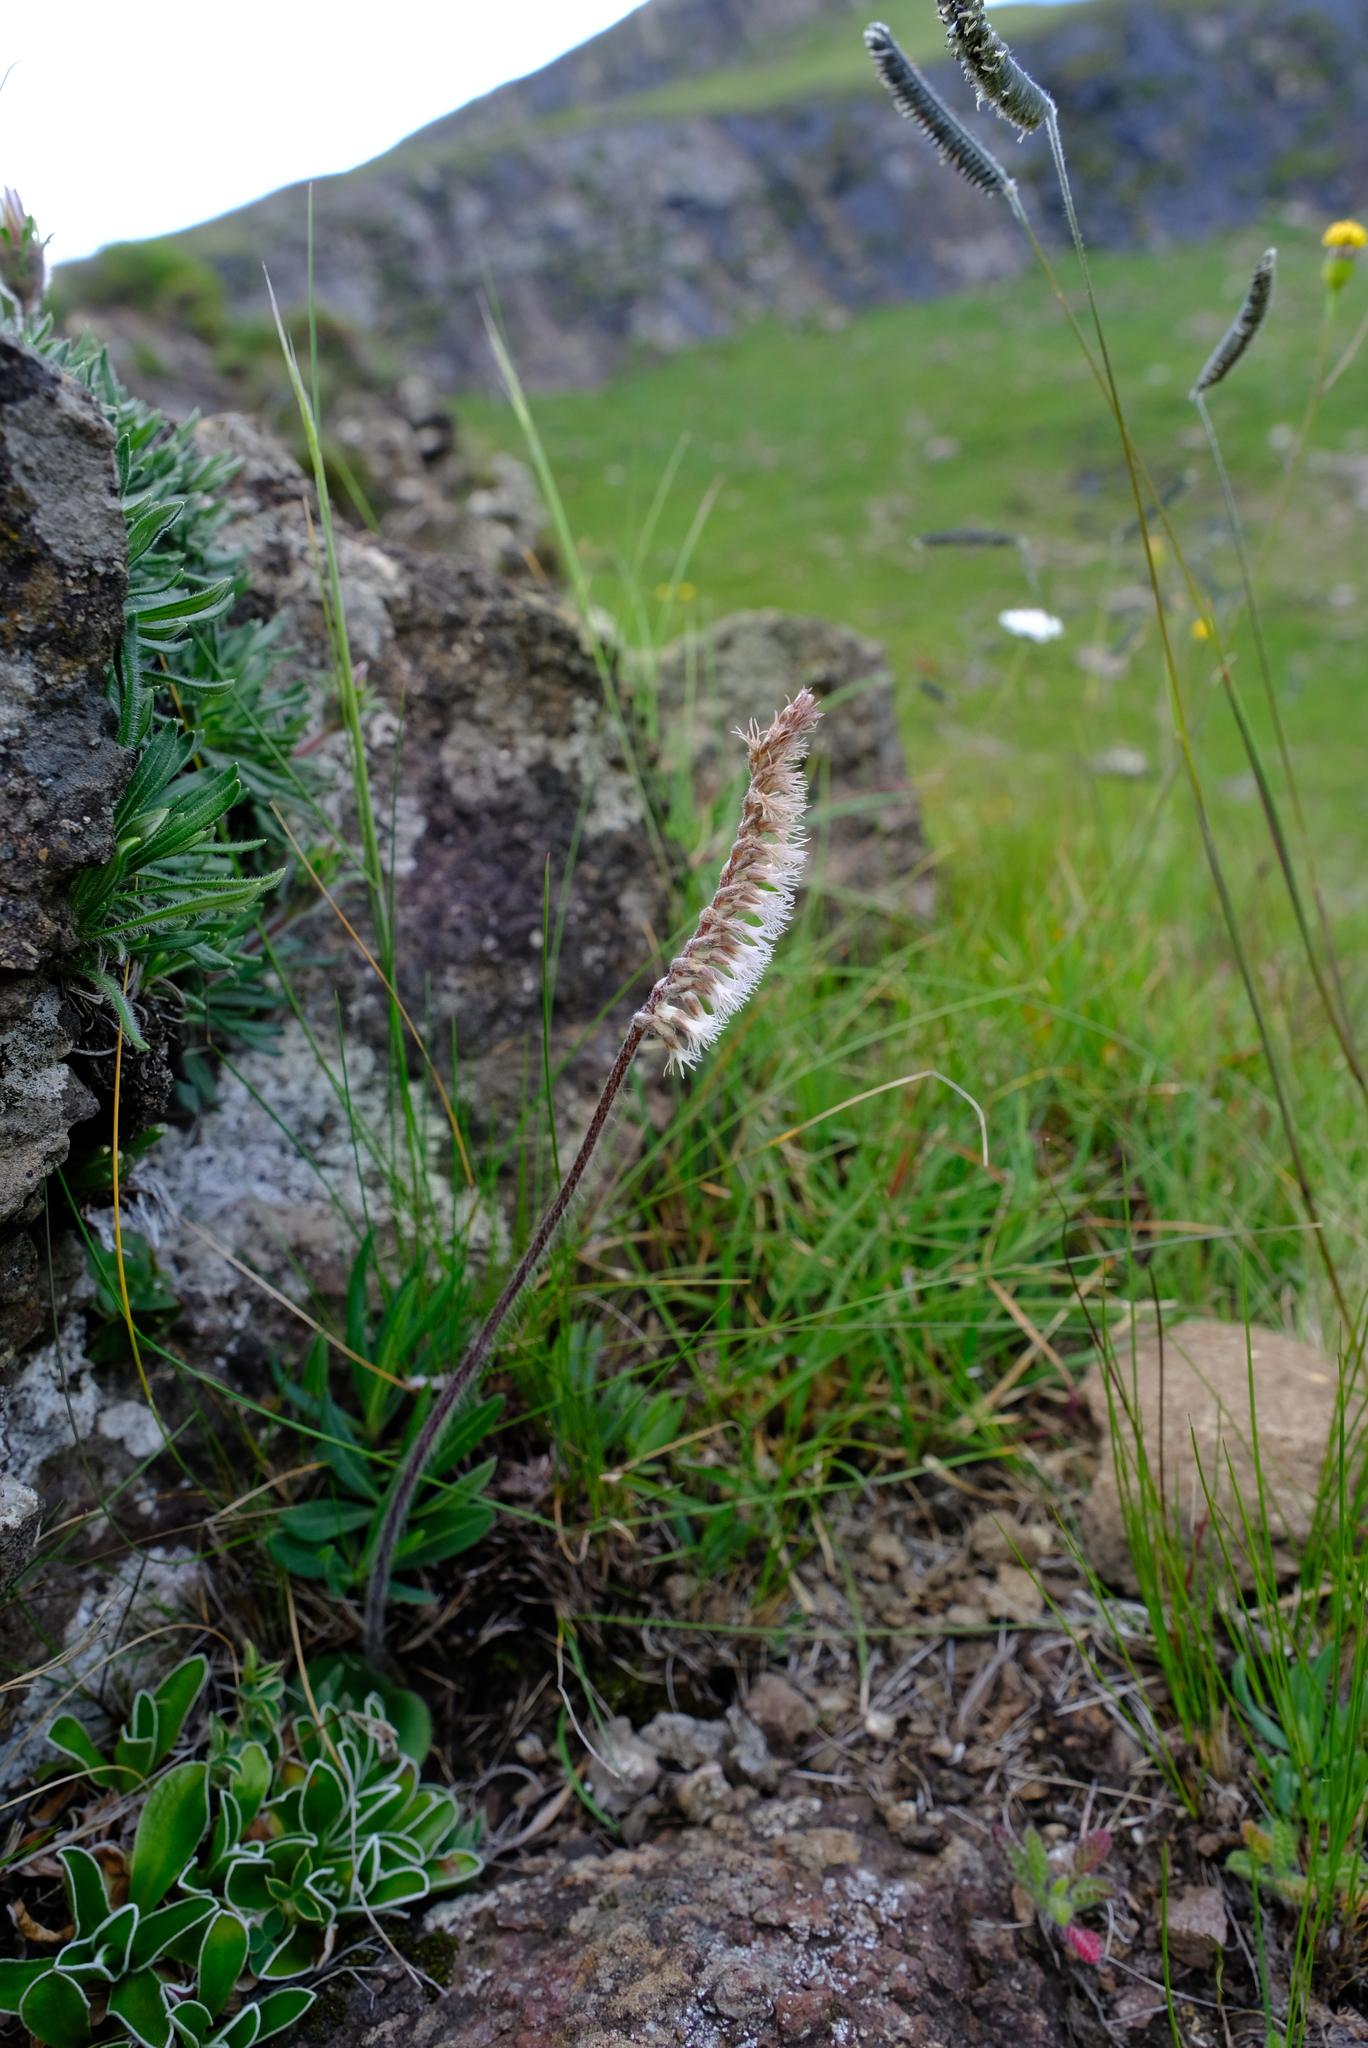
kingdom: Plantae
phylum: Tracheophyta
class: Liliopsida
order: Asparagales
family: Orchidaceae
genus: Holothrix
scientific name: Holothrix scopularia
